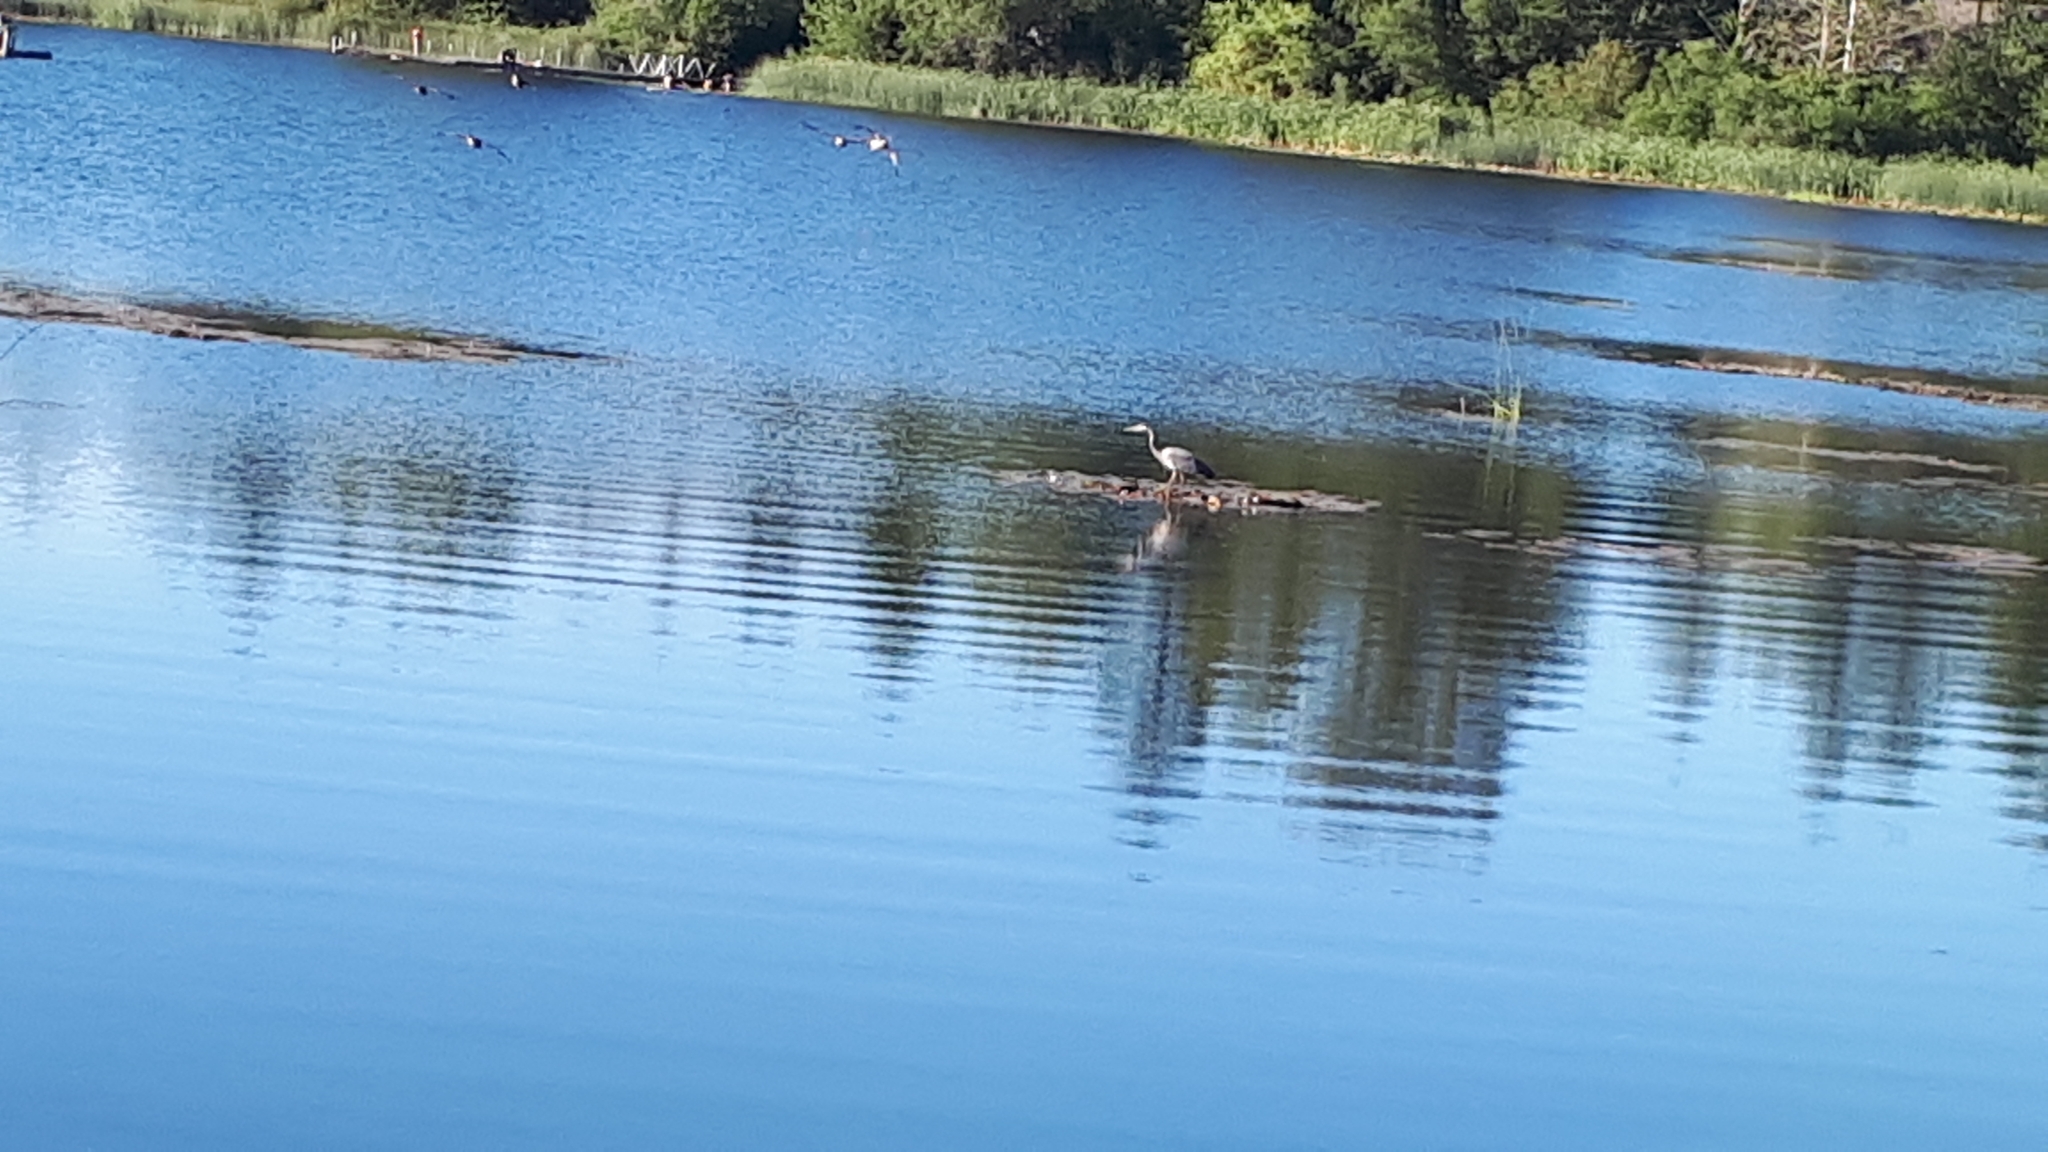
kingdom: Animalia
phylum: Chordata
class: Aves
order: Pelecaniformes
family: Ardeidae
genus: Ardea
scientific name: Ardea herodias
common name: Great blue heron
